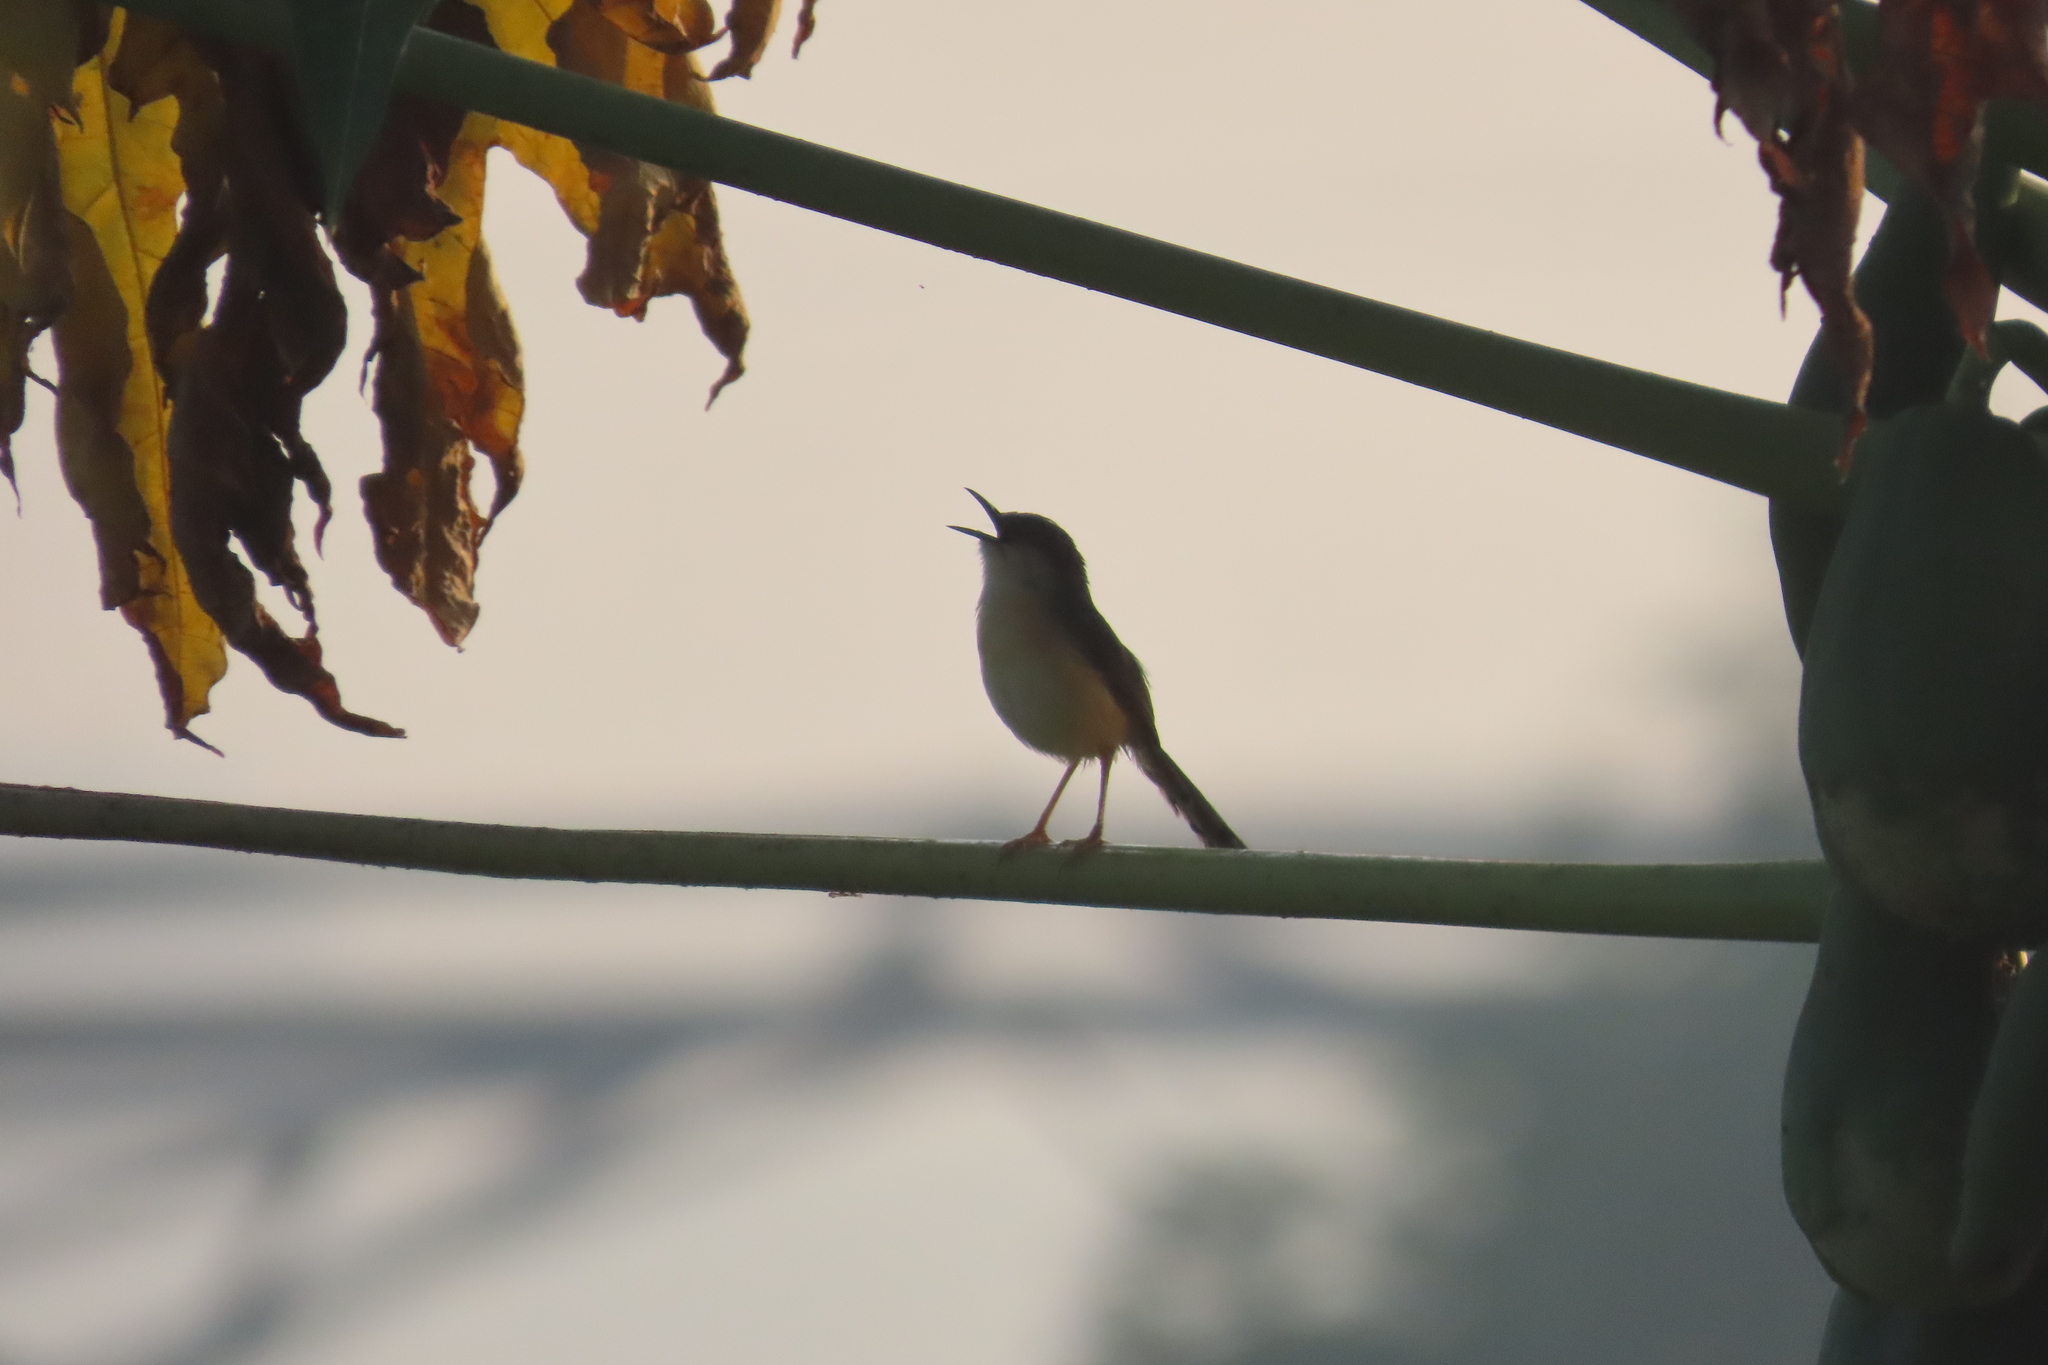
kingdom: Animalia
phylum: Chordata
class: Aves
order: Passeriformes
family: Cisticolidae
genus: Prinia
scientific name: Prinia socialis
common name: Ashy prinia
